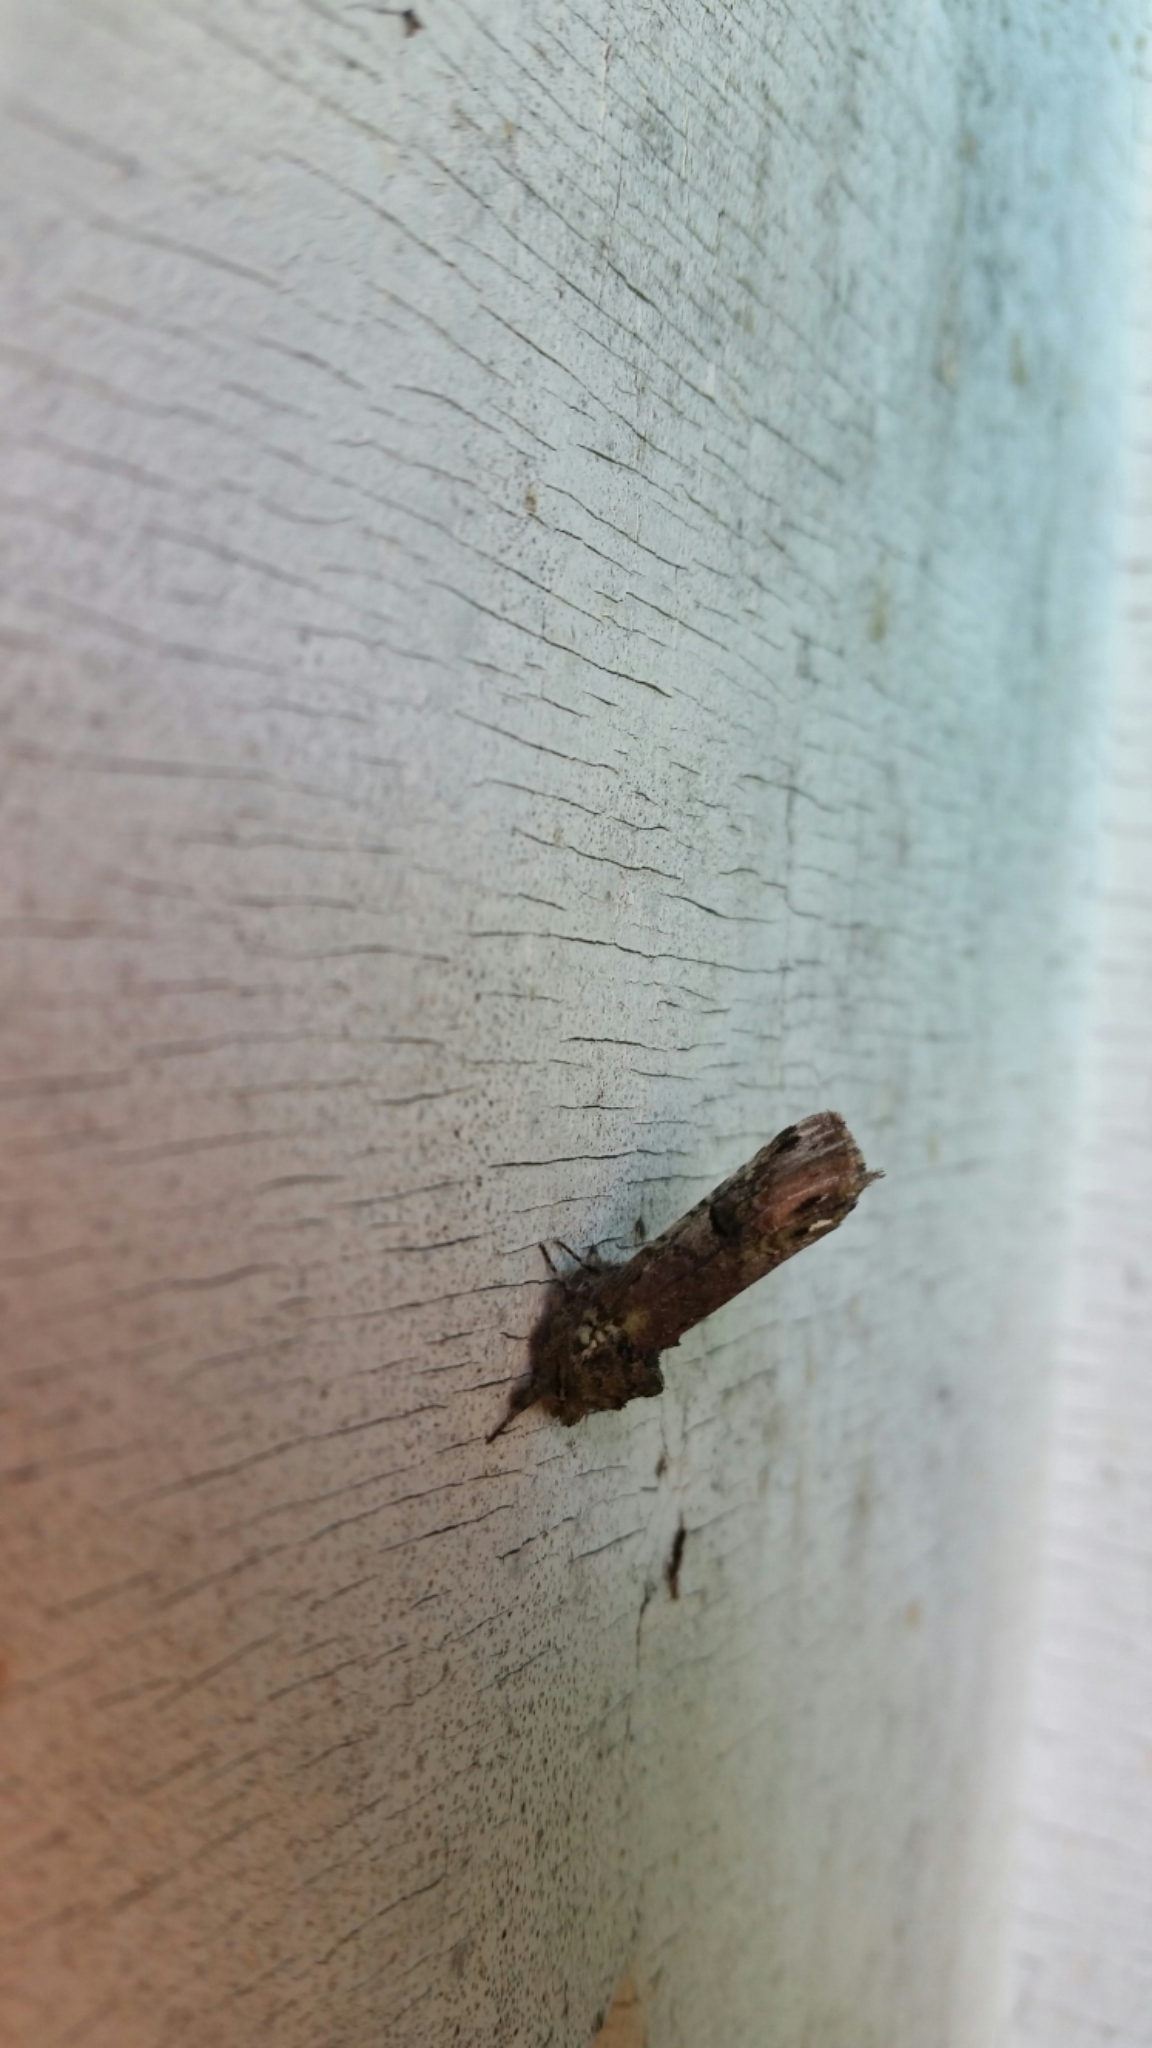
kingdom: Animalia
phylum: Arthropoda
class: Insecta
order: Lepidoptera
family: Notodontidae
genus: Schizura
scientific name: Schizura
